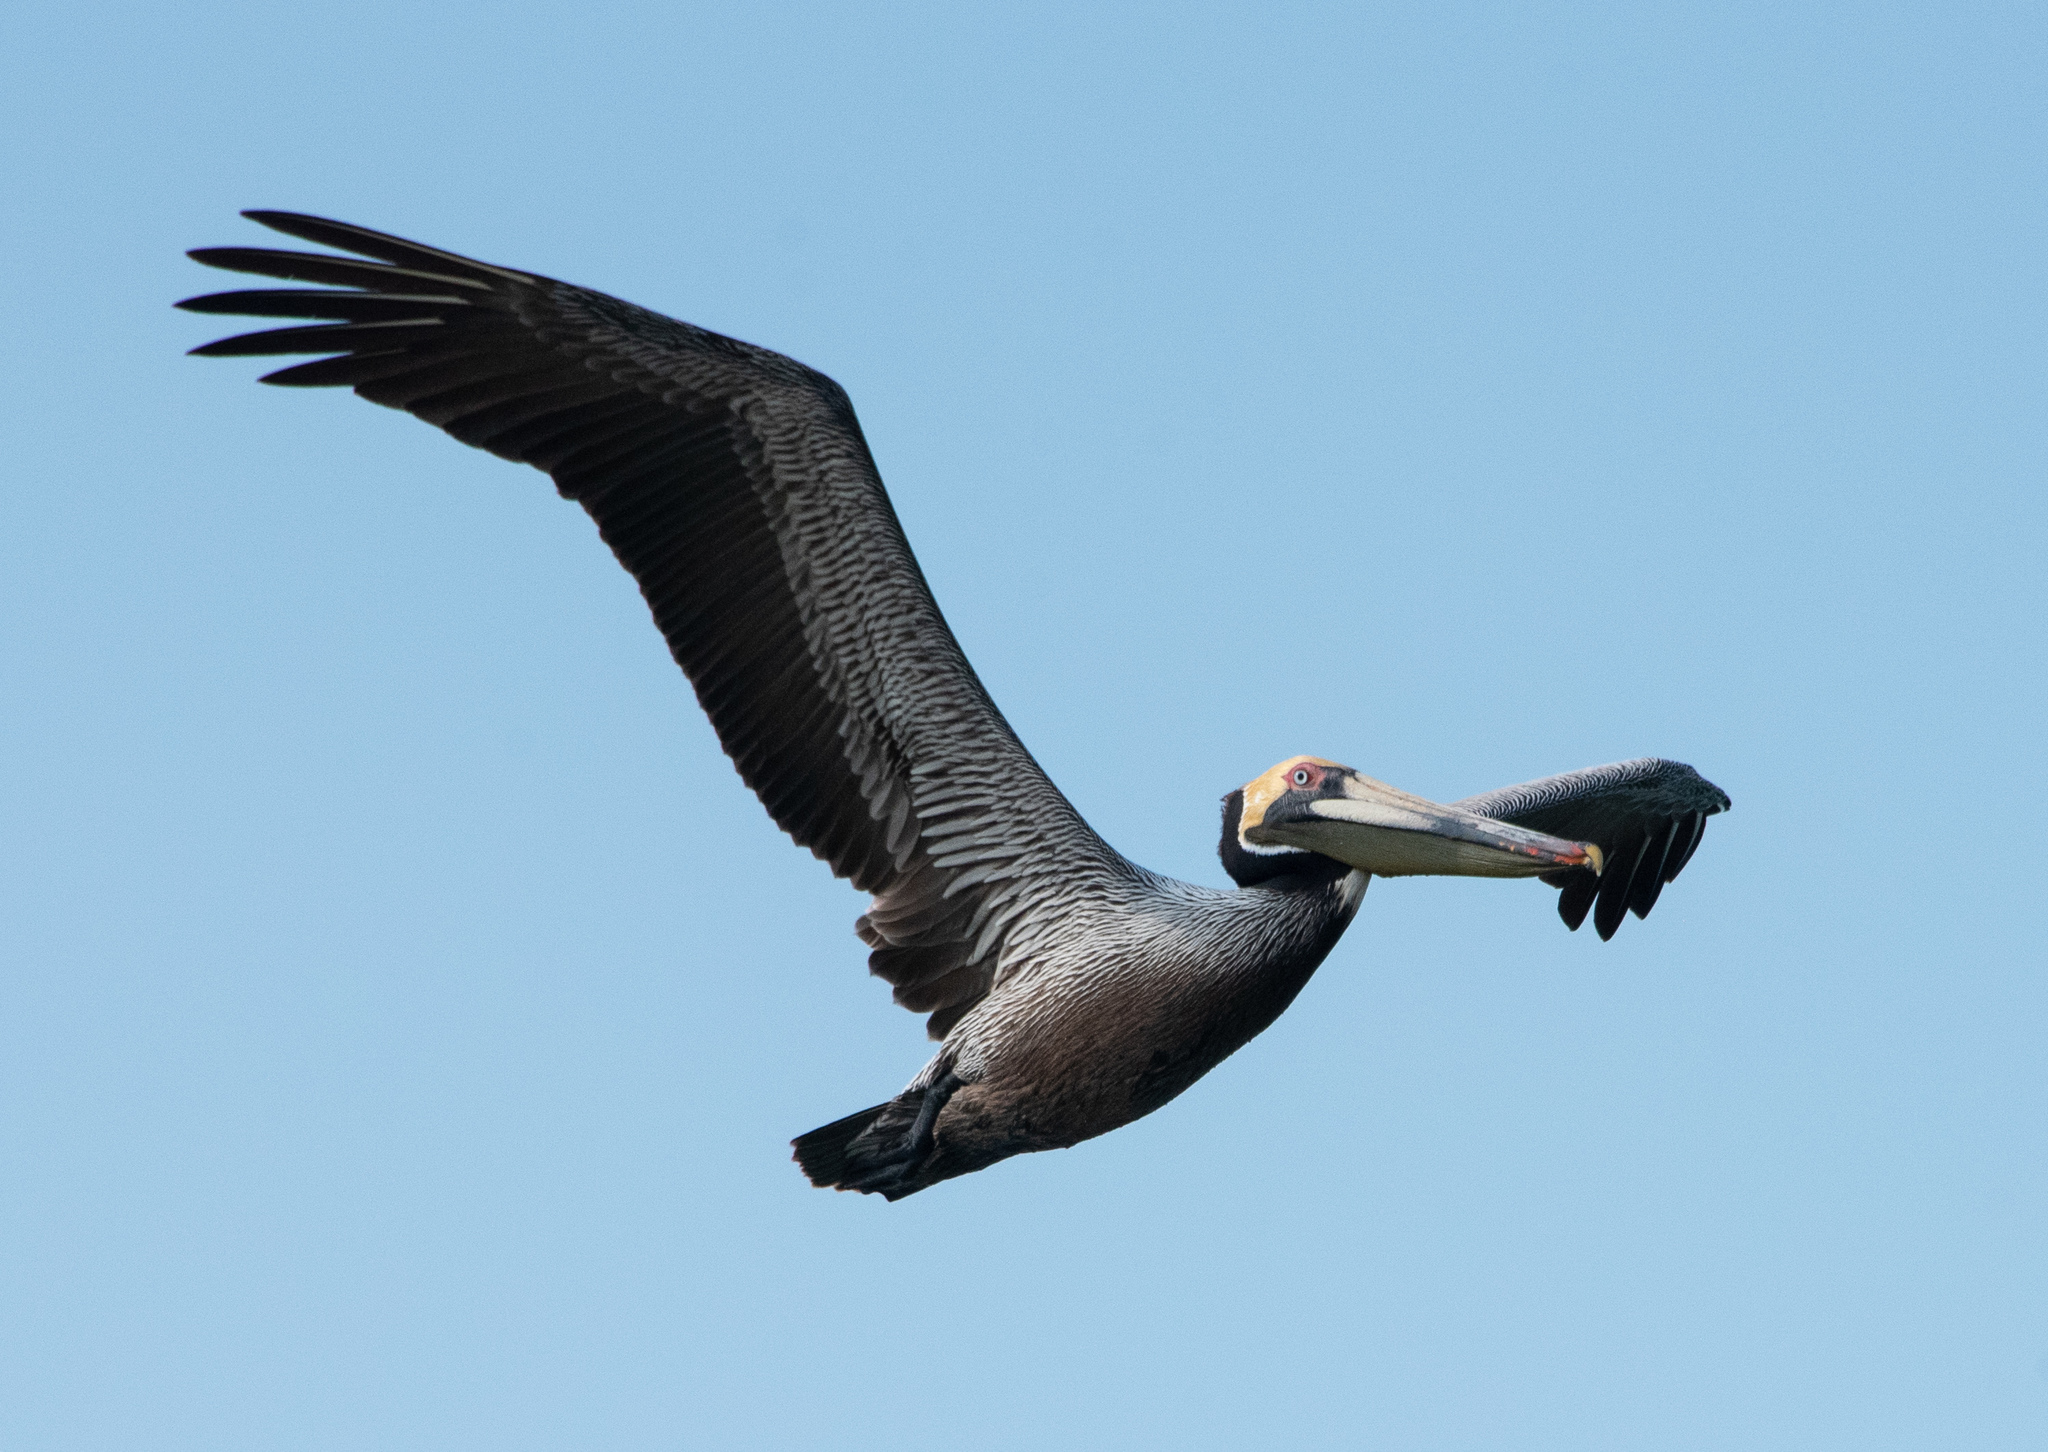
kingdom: Animalia
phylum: Chordata
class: Aves
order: Pelecaniformes
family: Pelecanidae
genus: Pelecanus
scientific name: Pelecanus occidentalis
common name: Brown pelican
